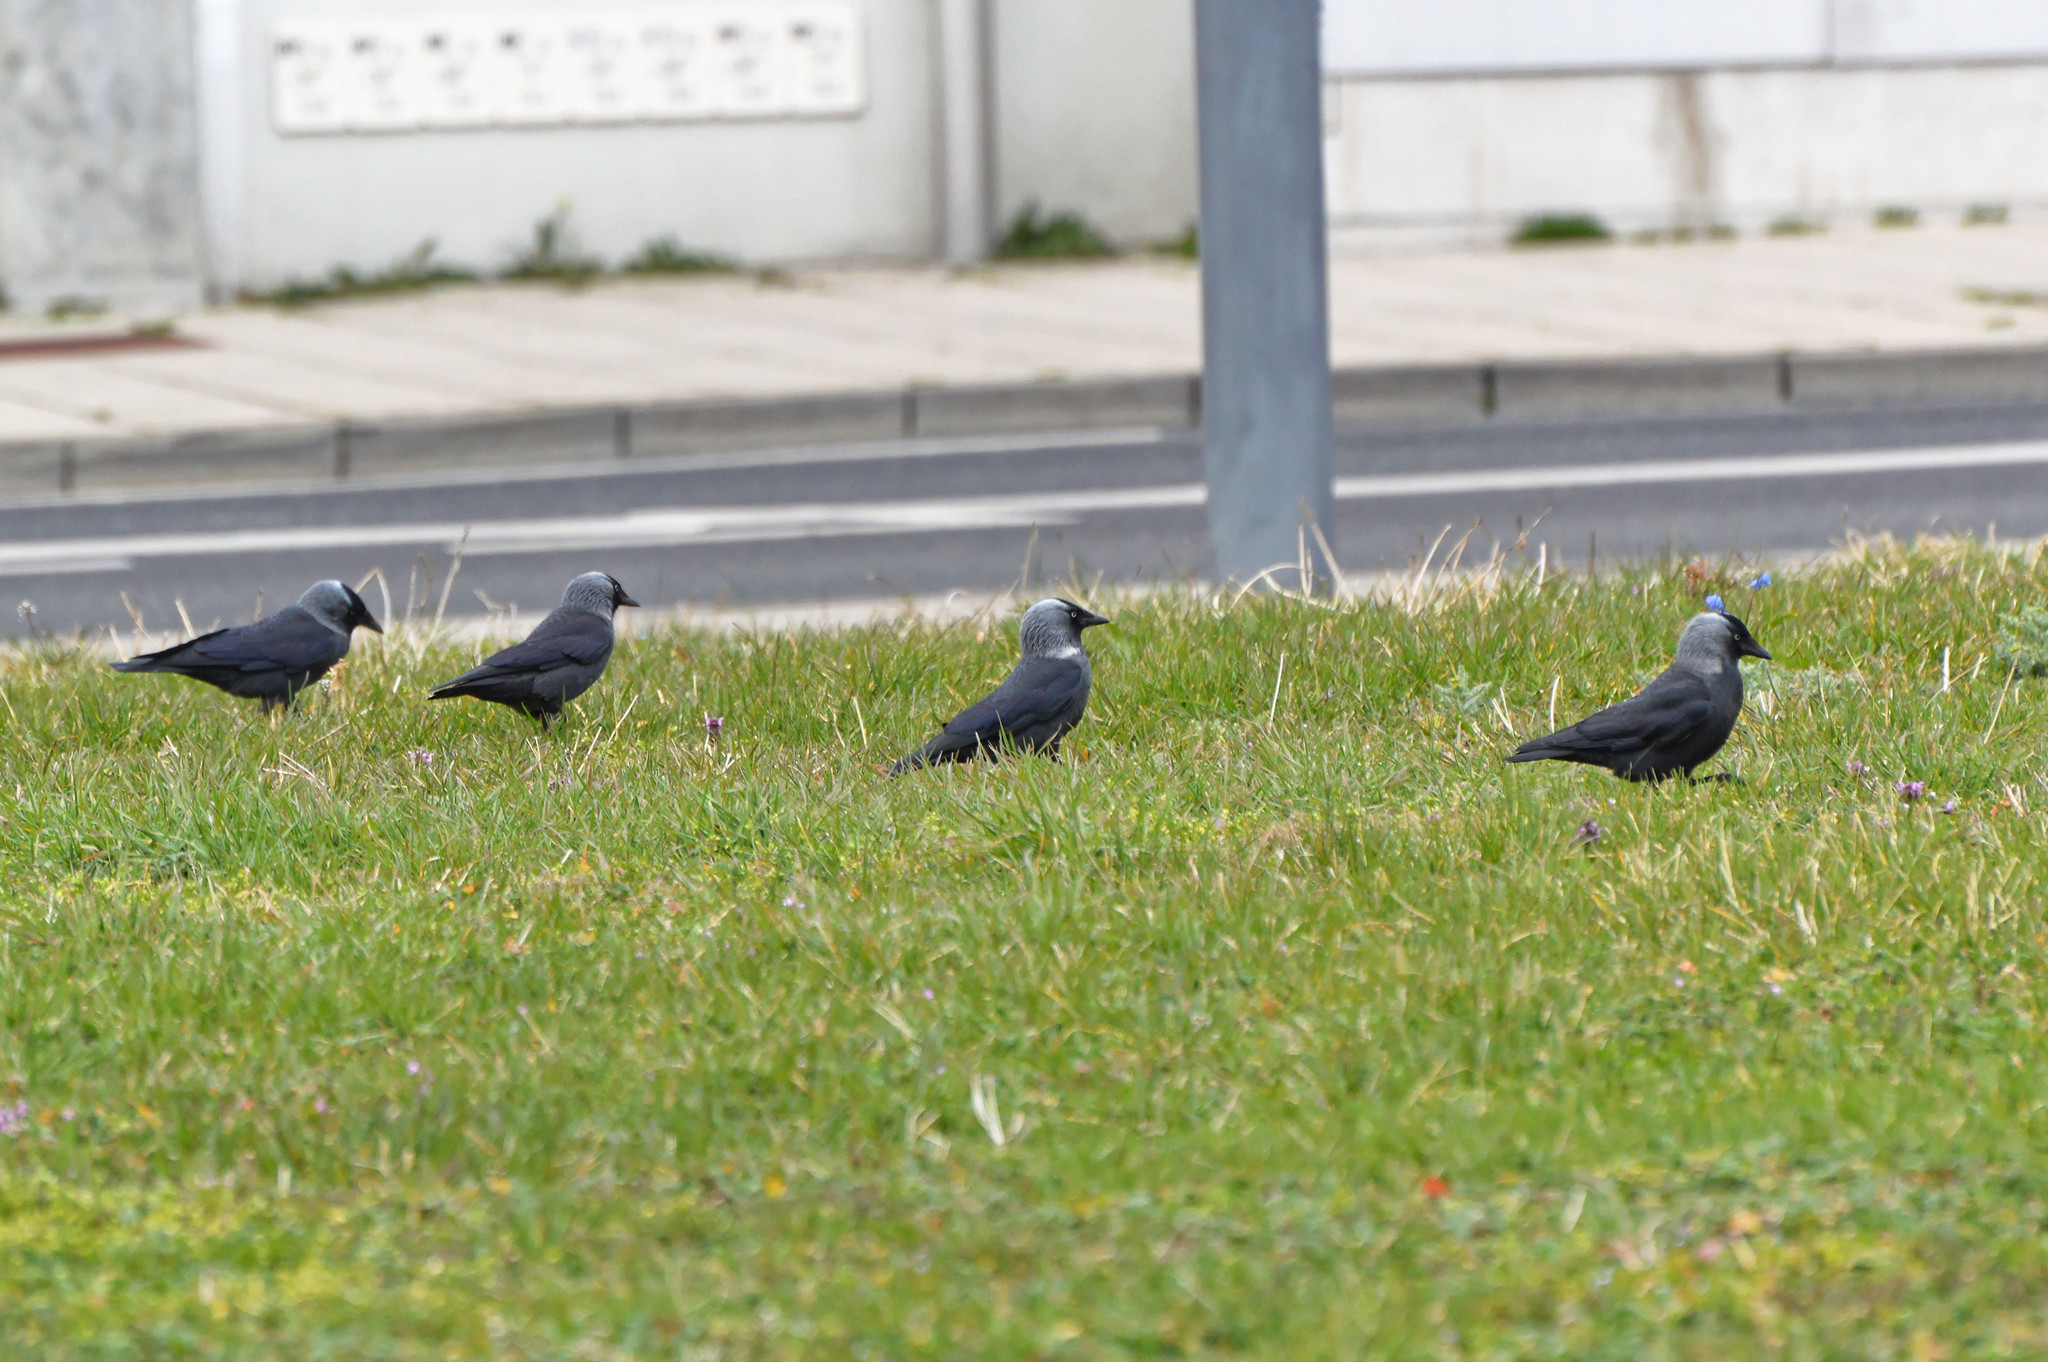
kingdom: Animalia
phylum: Chordata
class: Aves
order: Passeriformes
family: Corvidae
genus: Coloeus
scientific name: Coloeus monedula
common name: Western jackdaw
